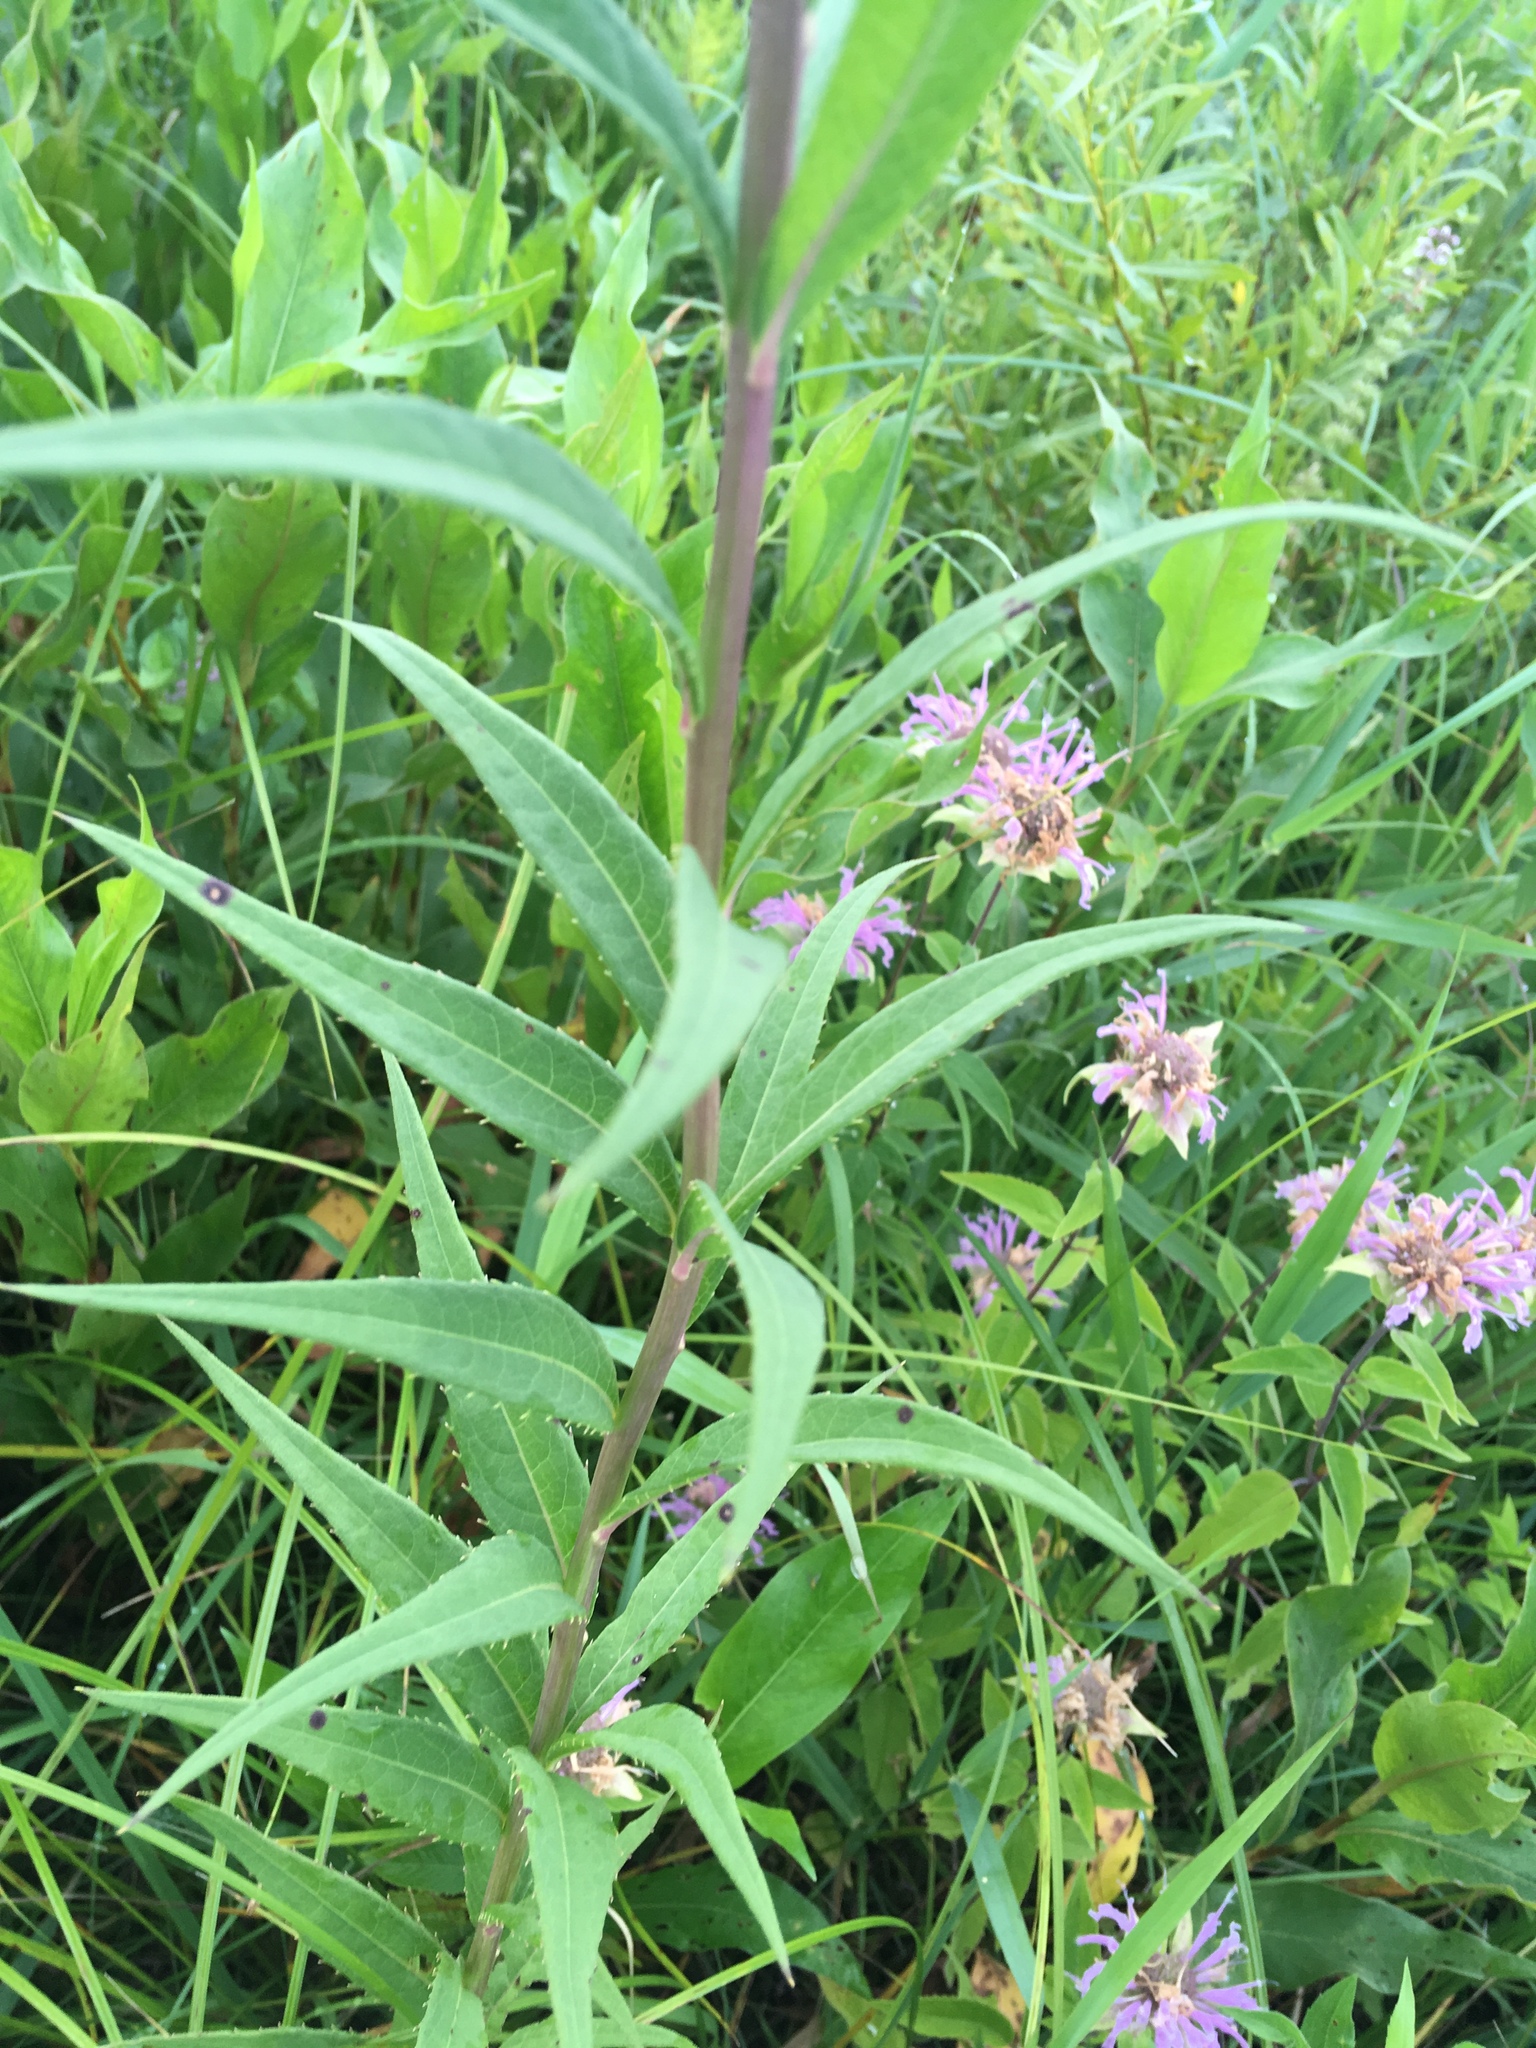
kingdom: Plantae
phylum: Tracheophyta
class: Magnoliopsida
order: Asterales
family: Asteraceae
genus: Vernonia
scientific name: Vernonia fasciculata
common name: Fascicled ironweed
